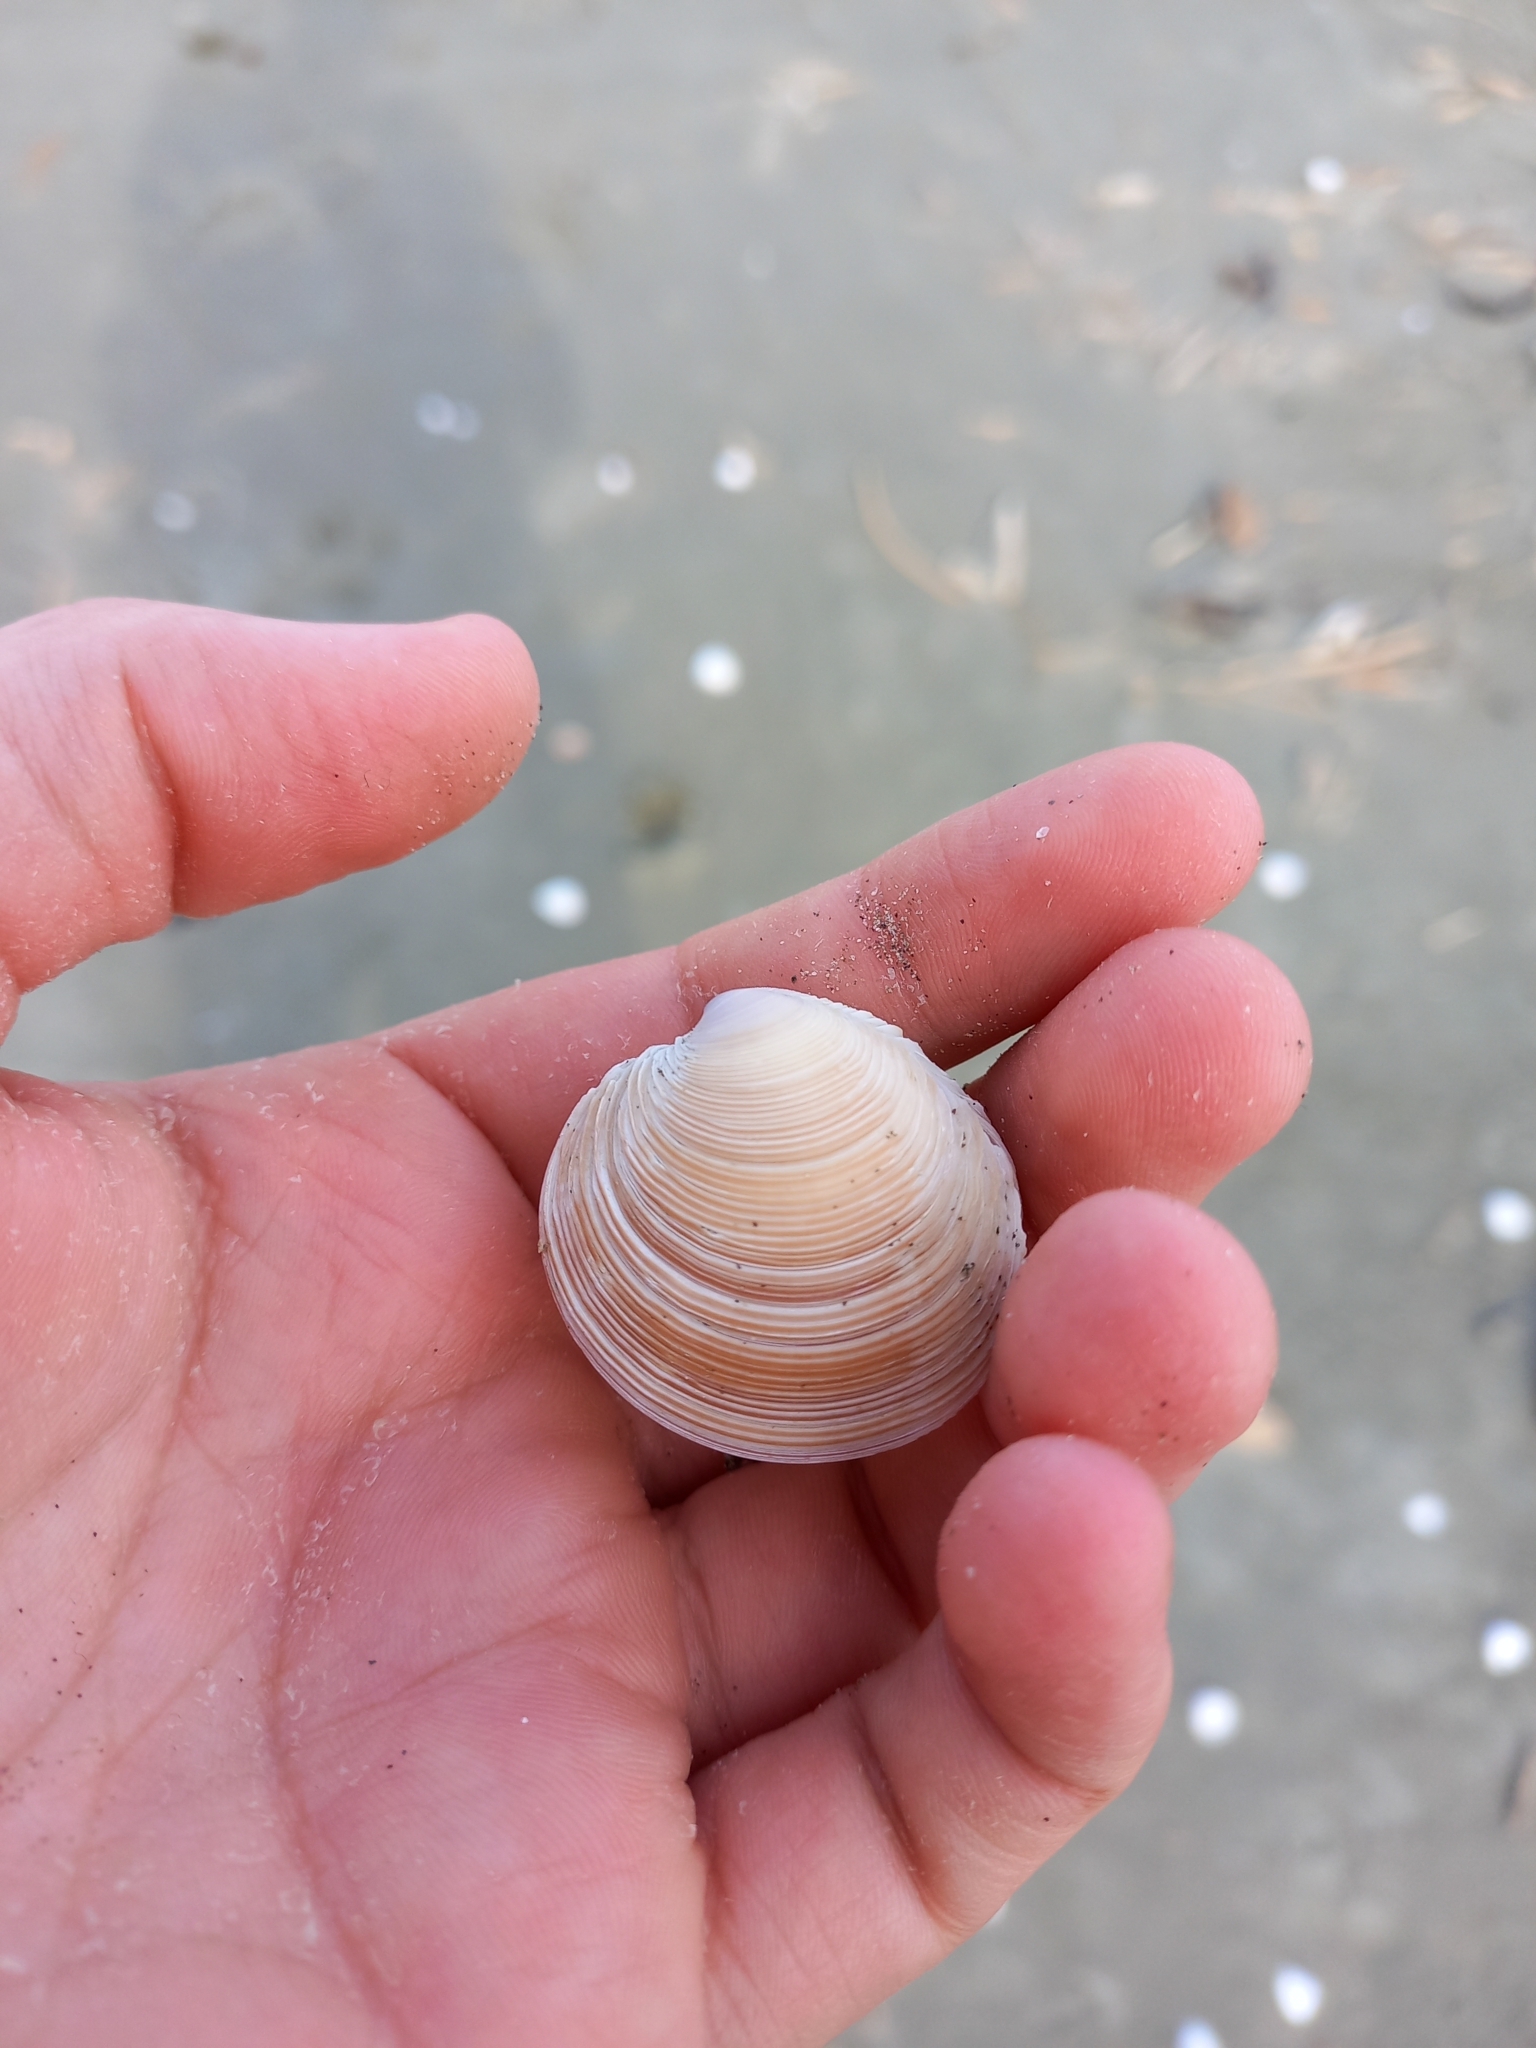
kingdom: Animalia
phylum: Mollusca
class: Bivalvia
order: Venerida
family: Veneridae
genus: Dosinia
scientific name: Dosinia anus
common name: Old-woman dosinia
